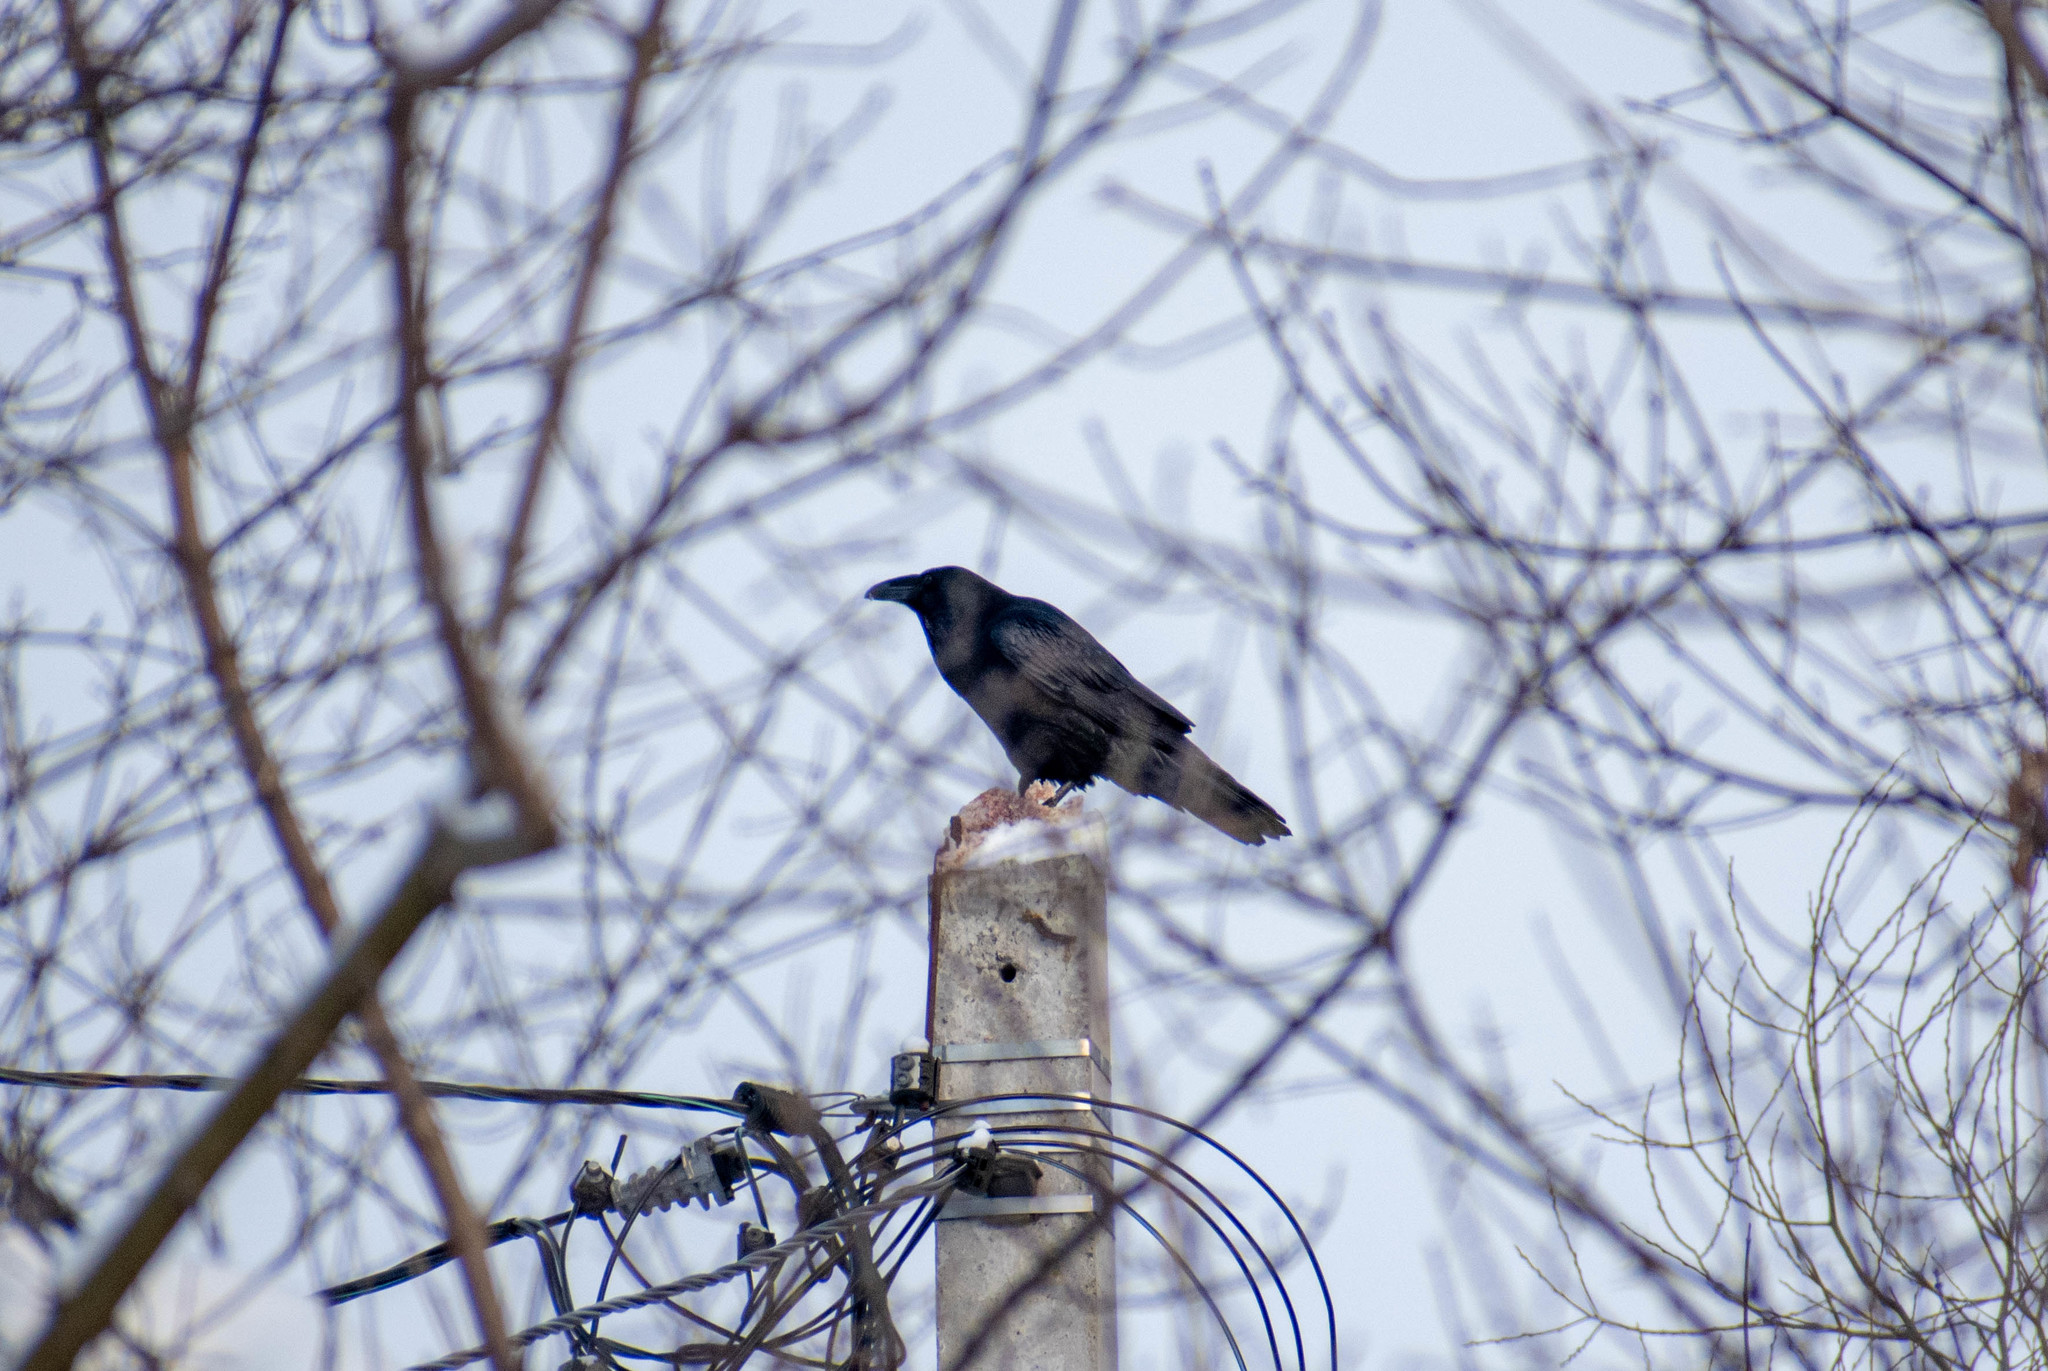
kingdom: Animalia
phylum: Chordata
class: Aves
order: Passeriformes
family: Corvidae
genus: Corvus
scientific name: Corvus corax
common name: Common raven
